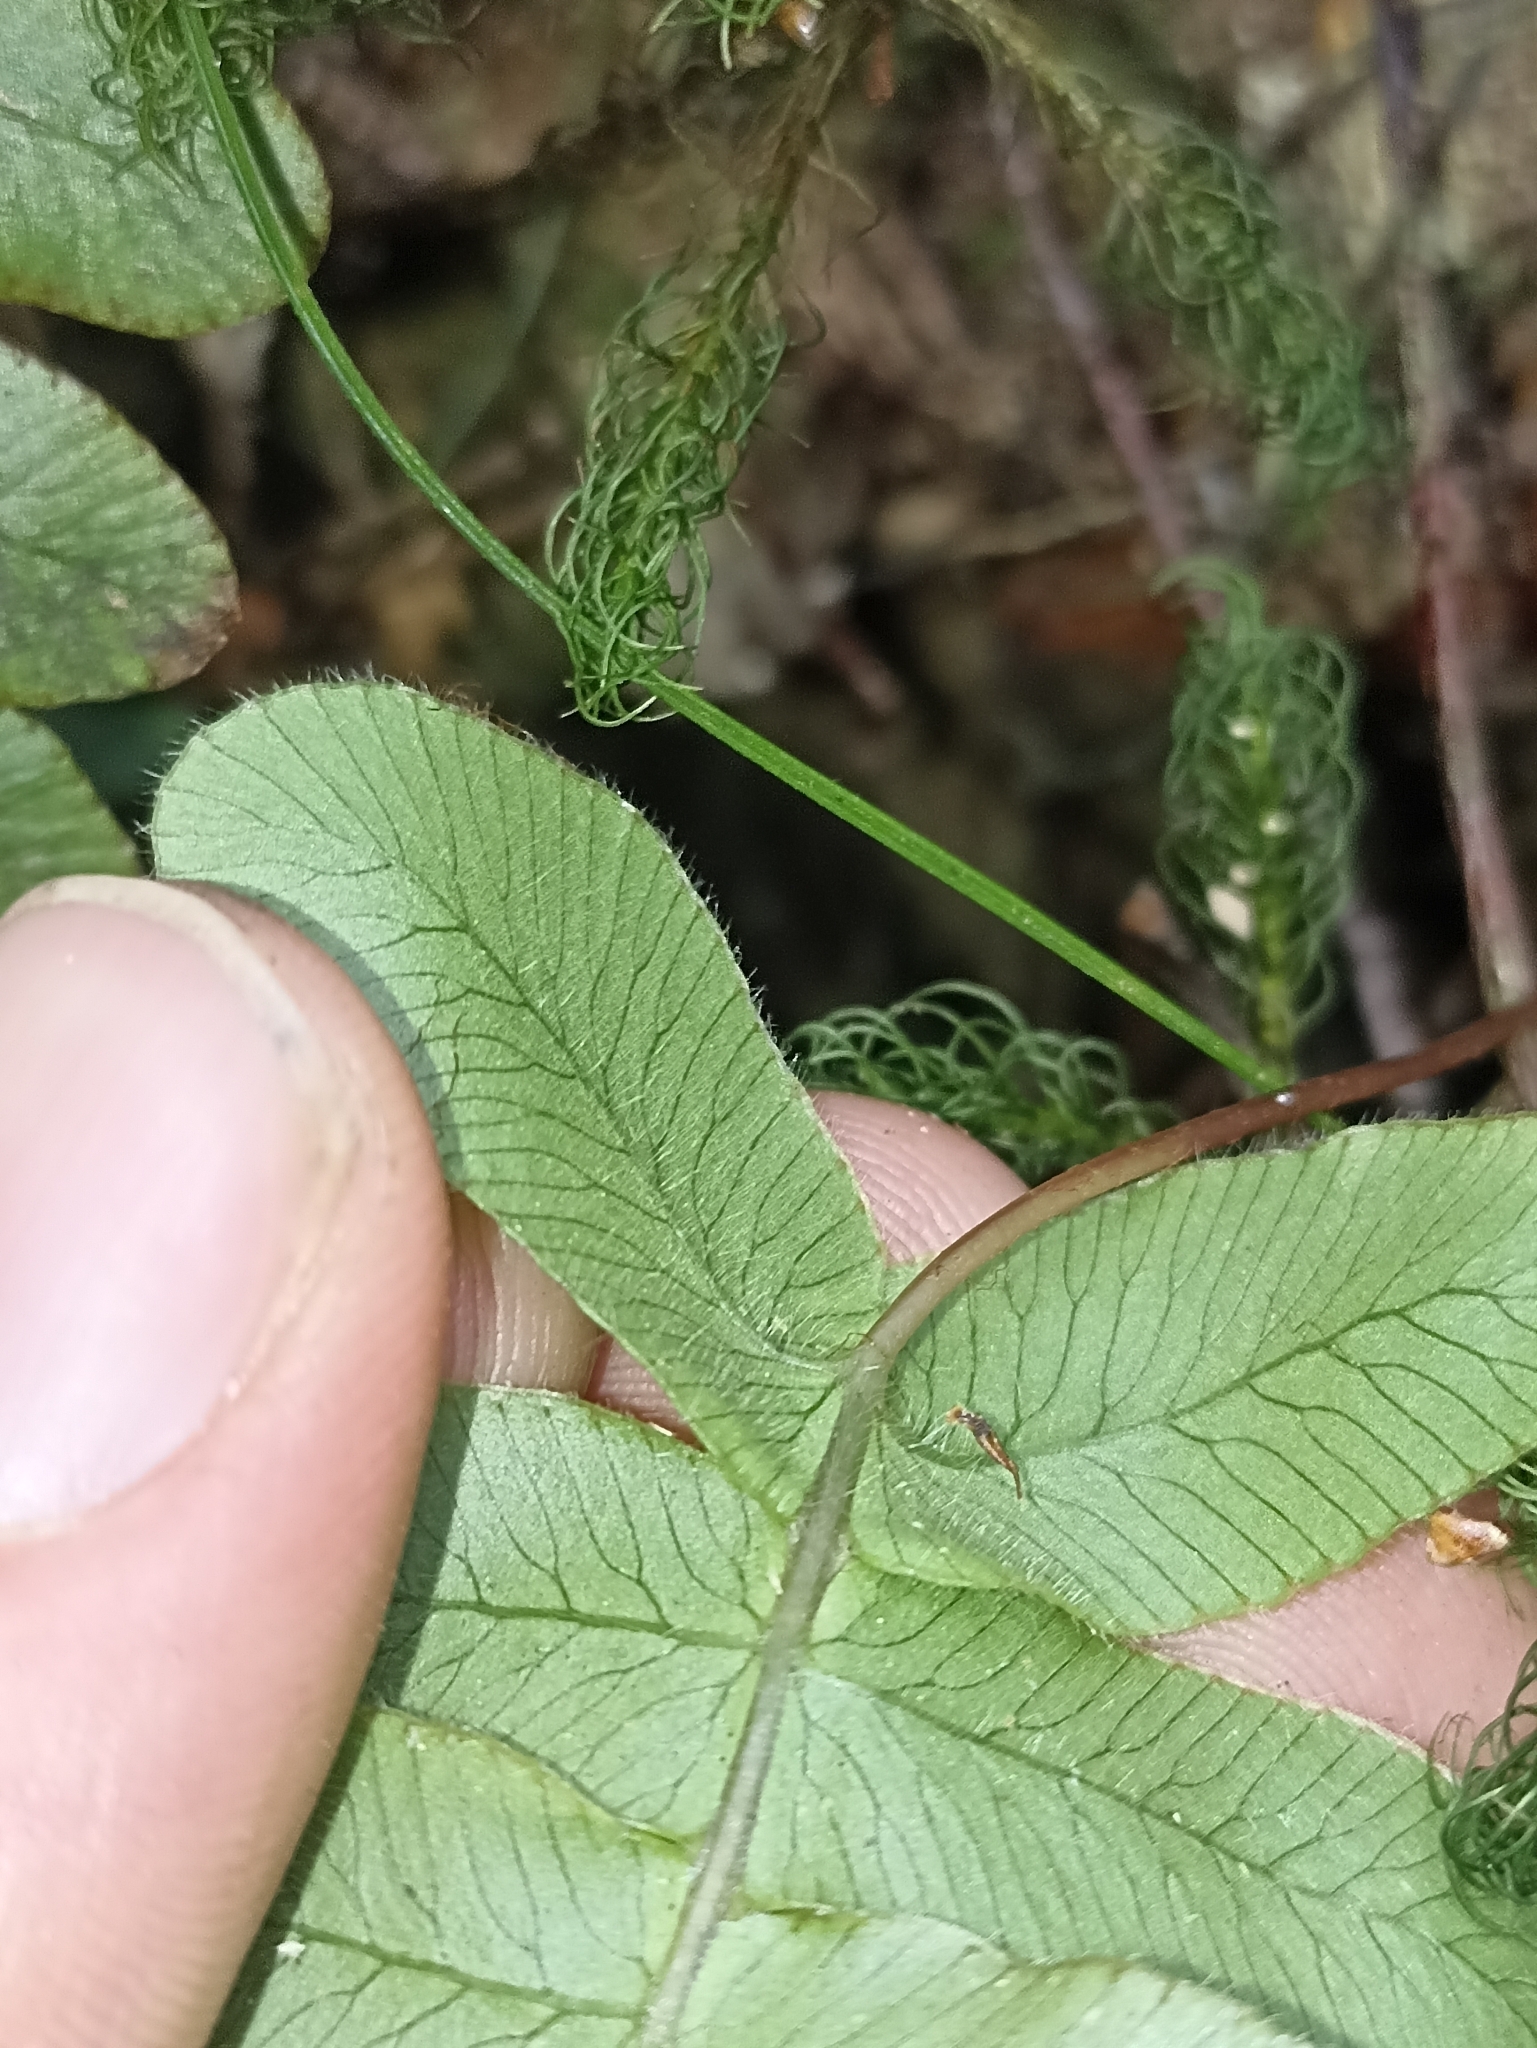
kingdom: Plantae
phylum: Tracheophyta
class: Polypodiopsida
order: Polypodiales
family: Blechnaceae
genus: Cranfillia
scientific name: Cranfillia deltoides
